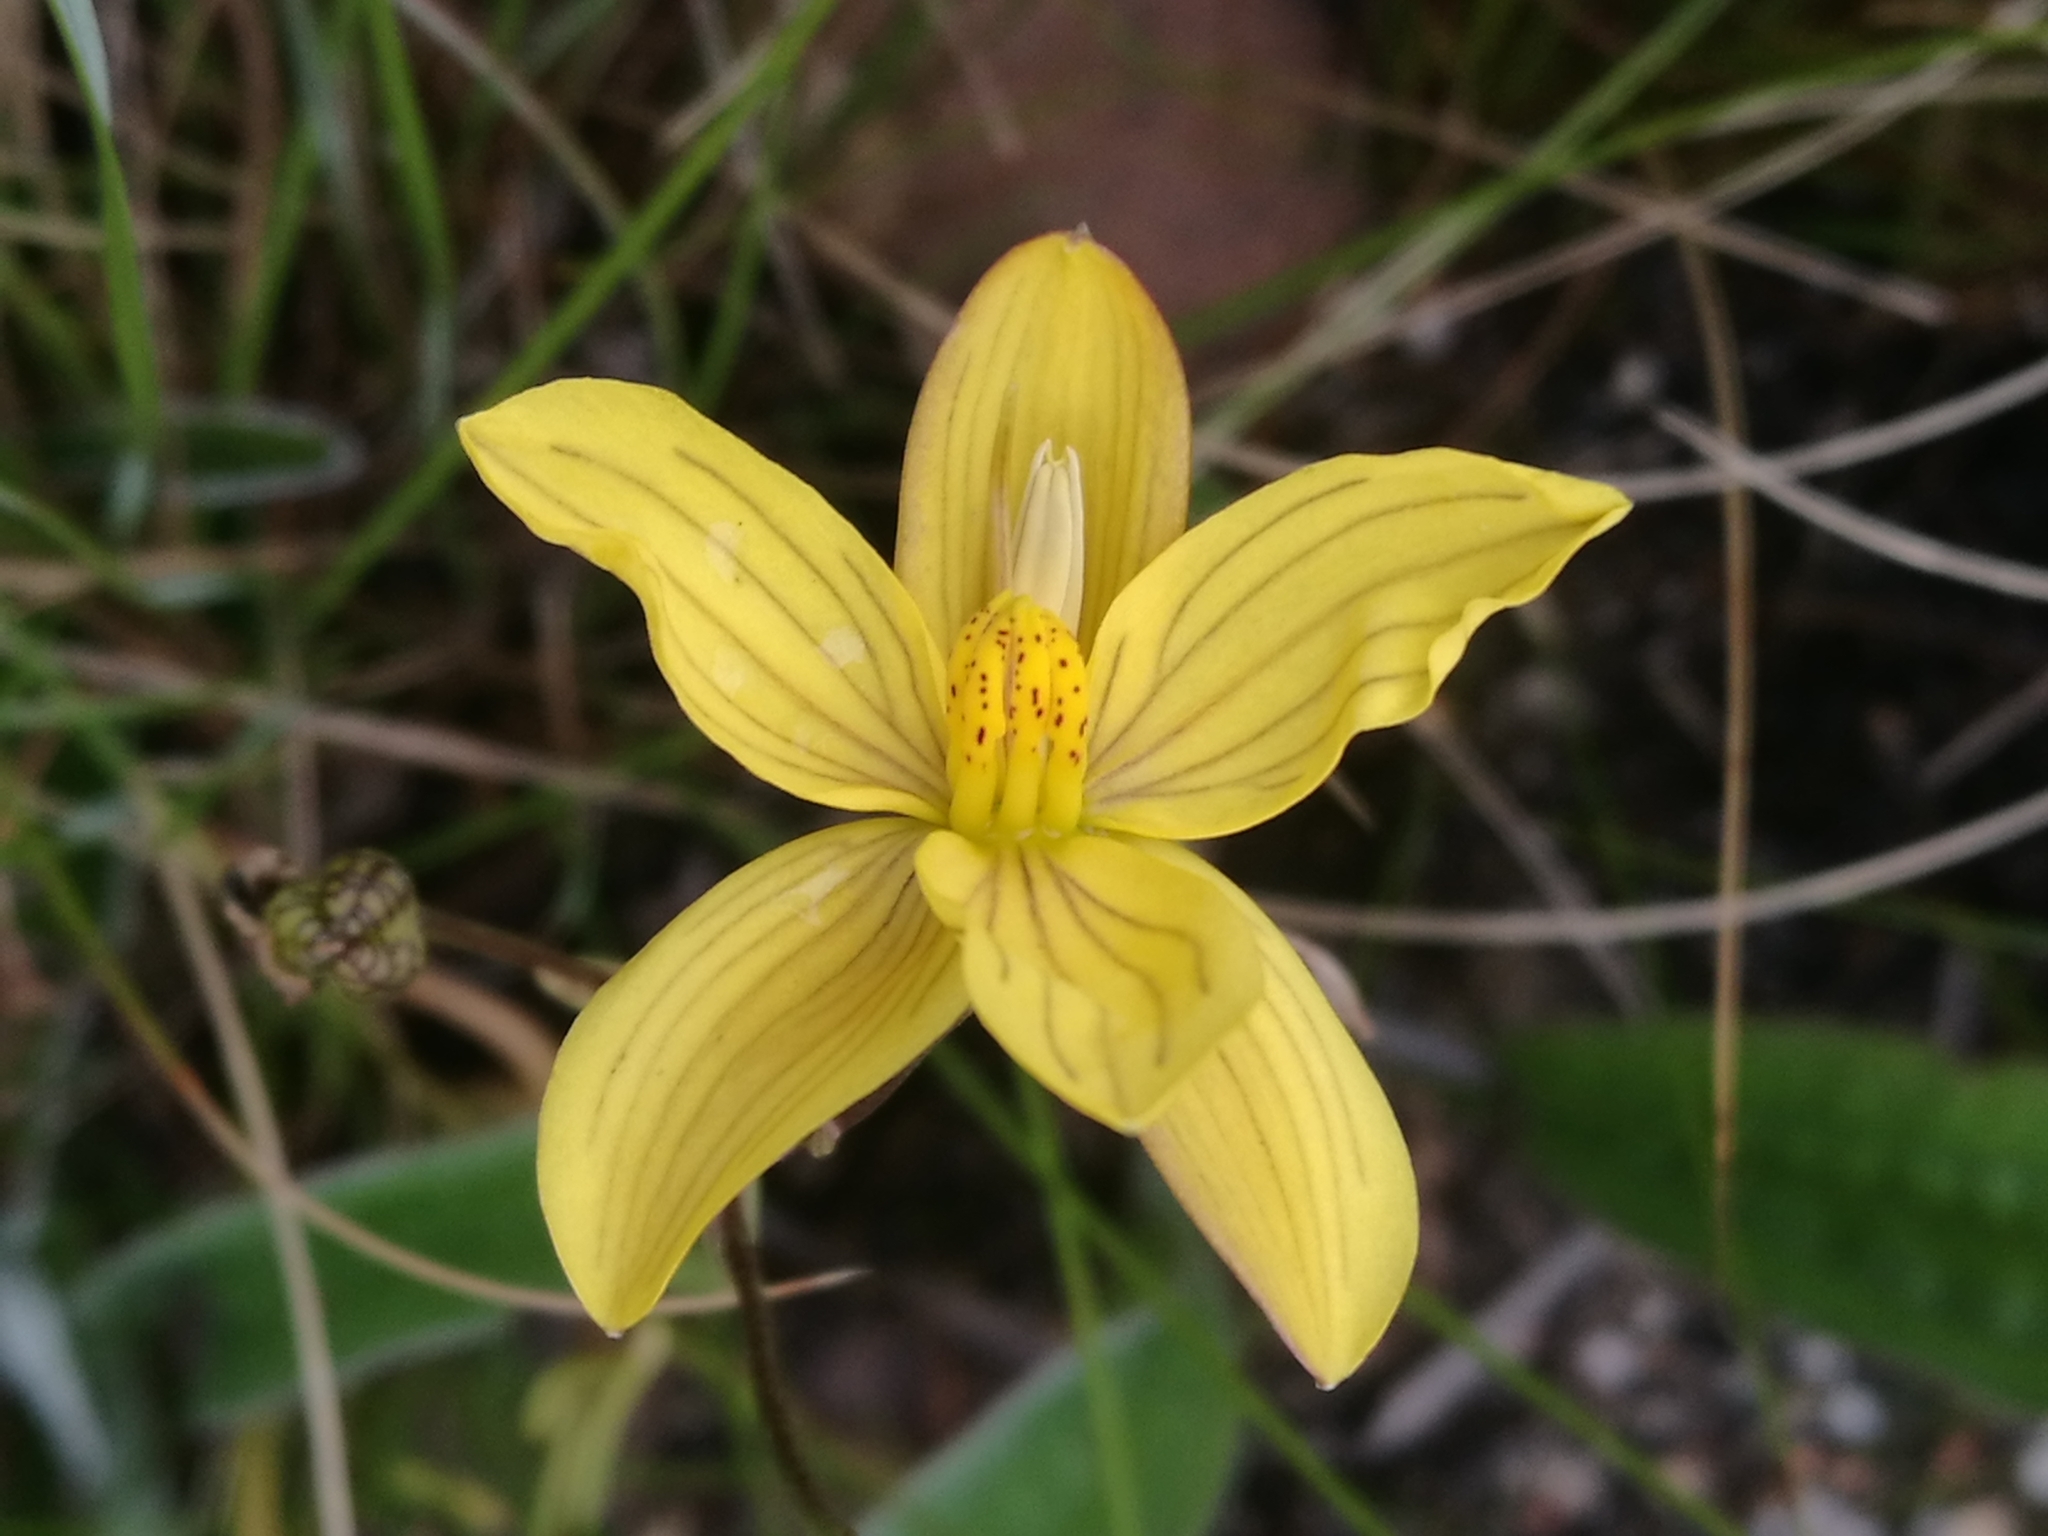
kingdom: Plantae
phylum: Tracheophyta
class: Liliopsida
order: Asparagales
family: Tecophilaeaceae
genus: Cyanella
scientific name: Cyanella lutea
